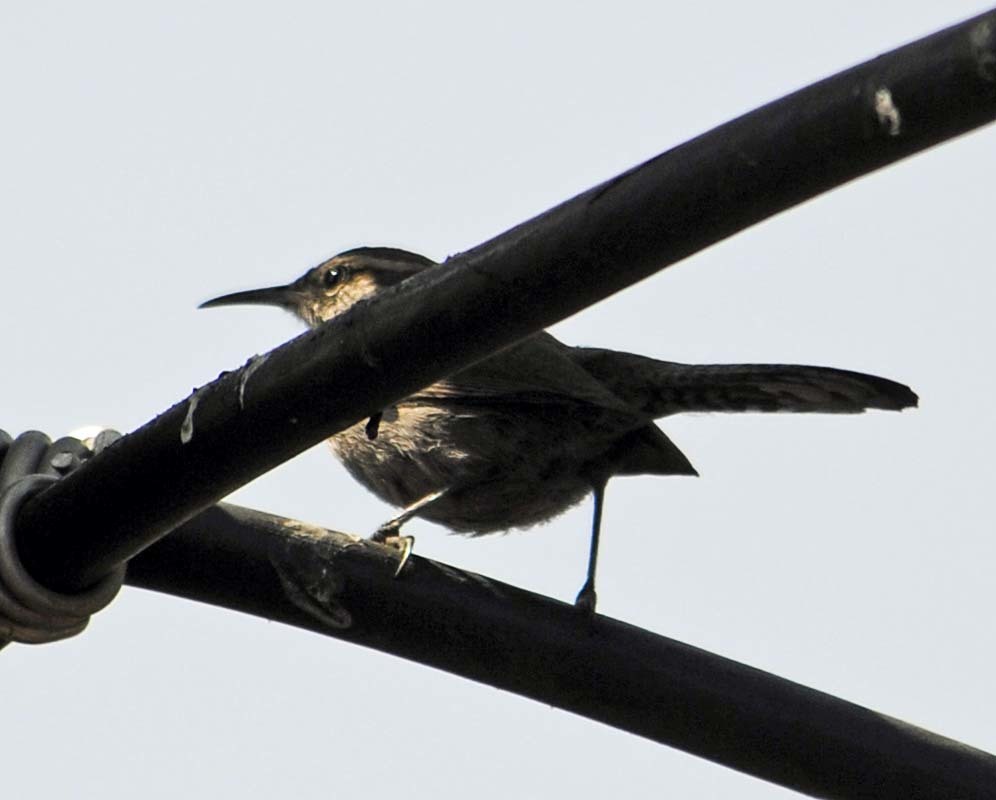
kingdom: Animalia
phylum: Chordata
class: Aves
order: Passeriformes
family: Troglodytidae
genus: Thryomanes
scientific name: Thryomanes bewickii
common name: Bewick's wren
